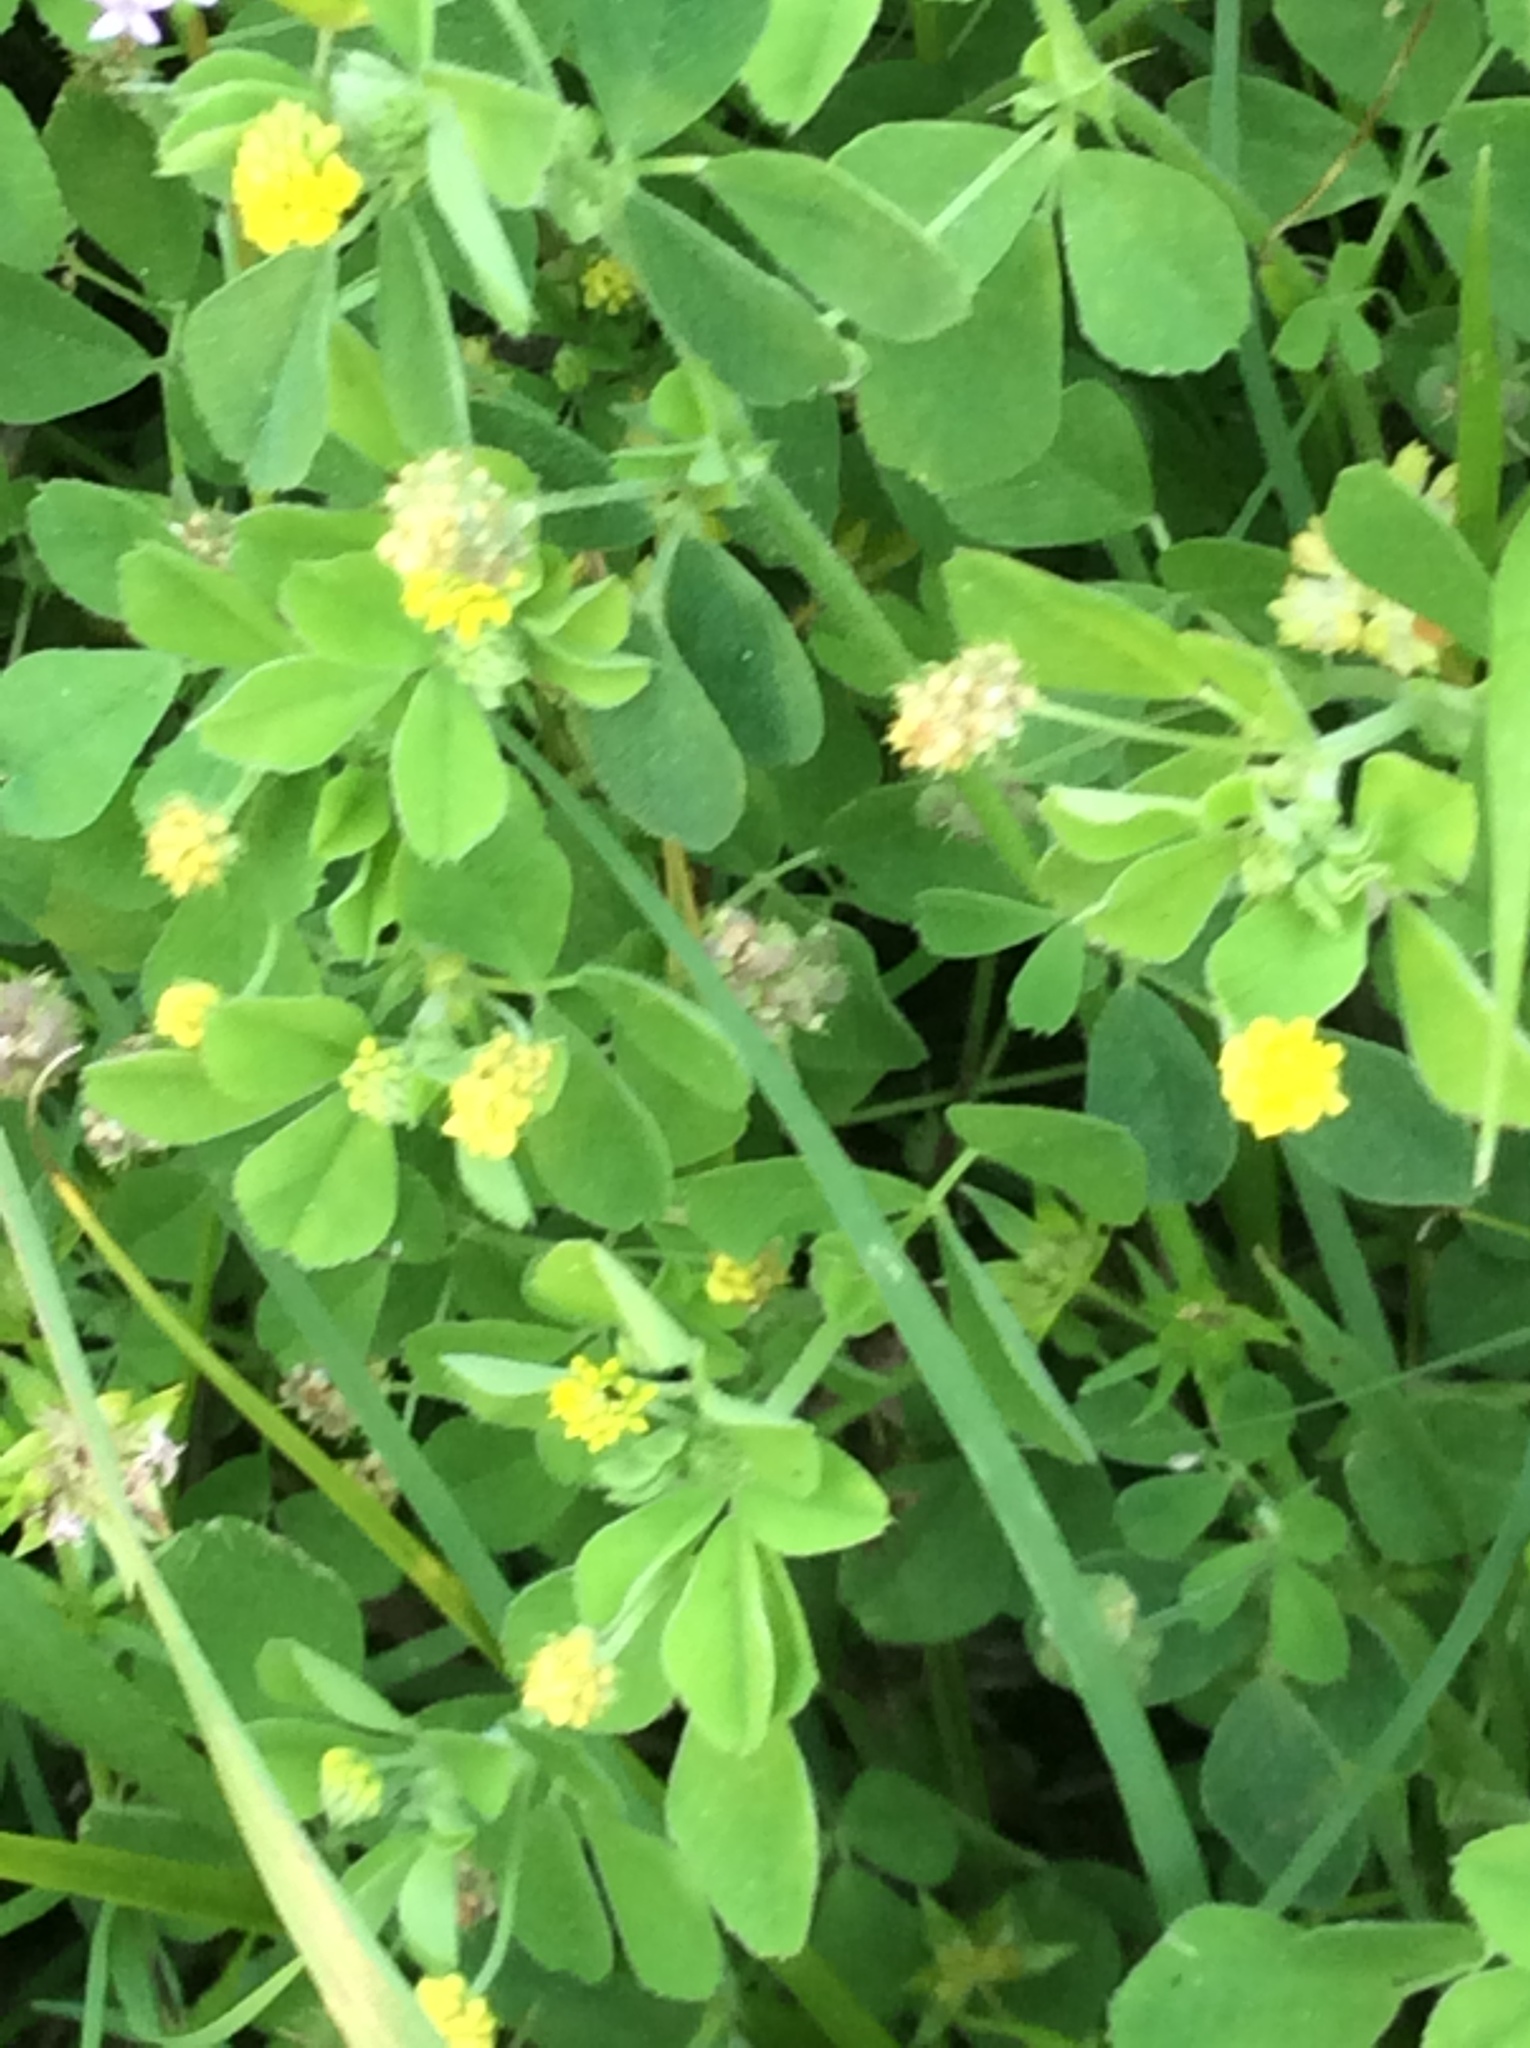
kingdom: Plantae
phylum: Tracheophyta
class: Magnoliopsida
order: Fabales
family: Fabaceae
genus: Medicago
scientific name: Medicago lupulina
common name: Black medick
